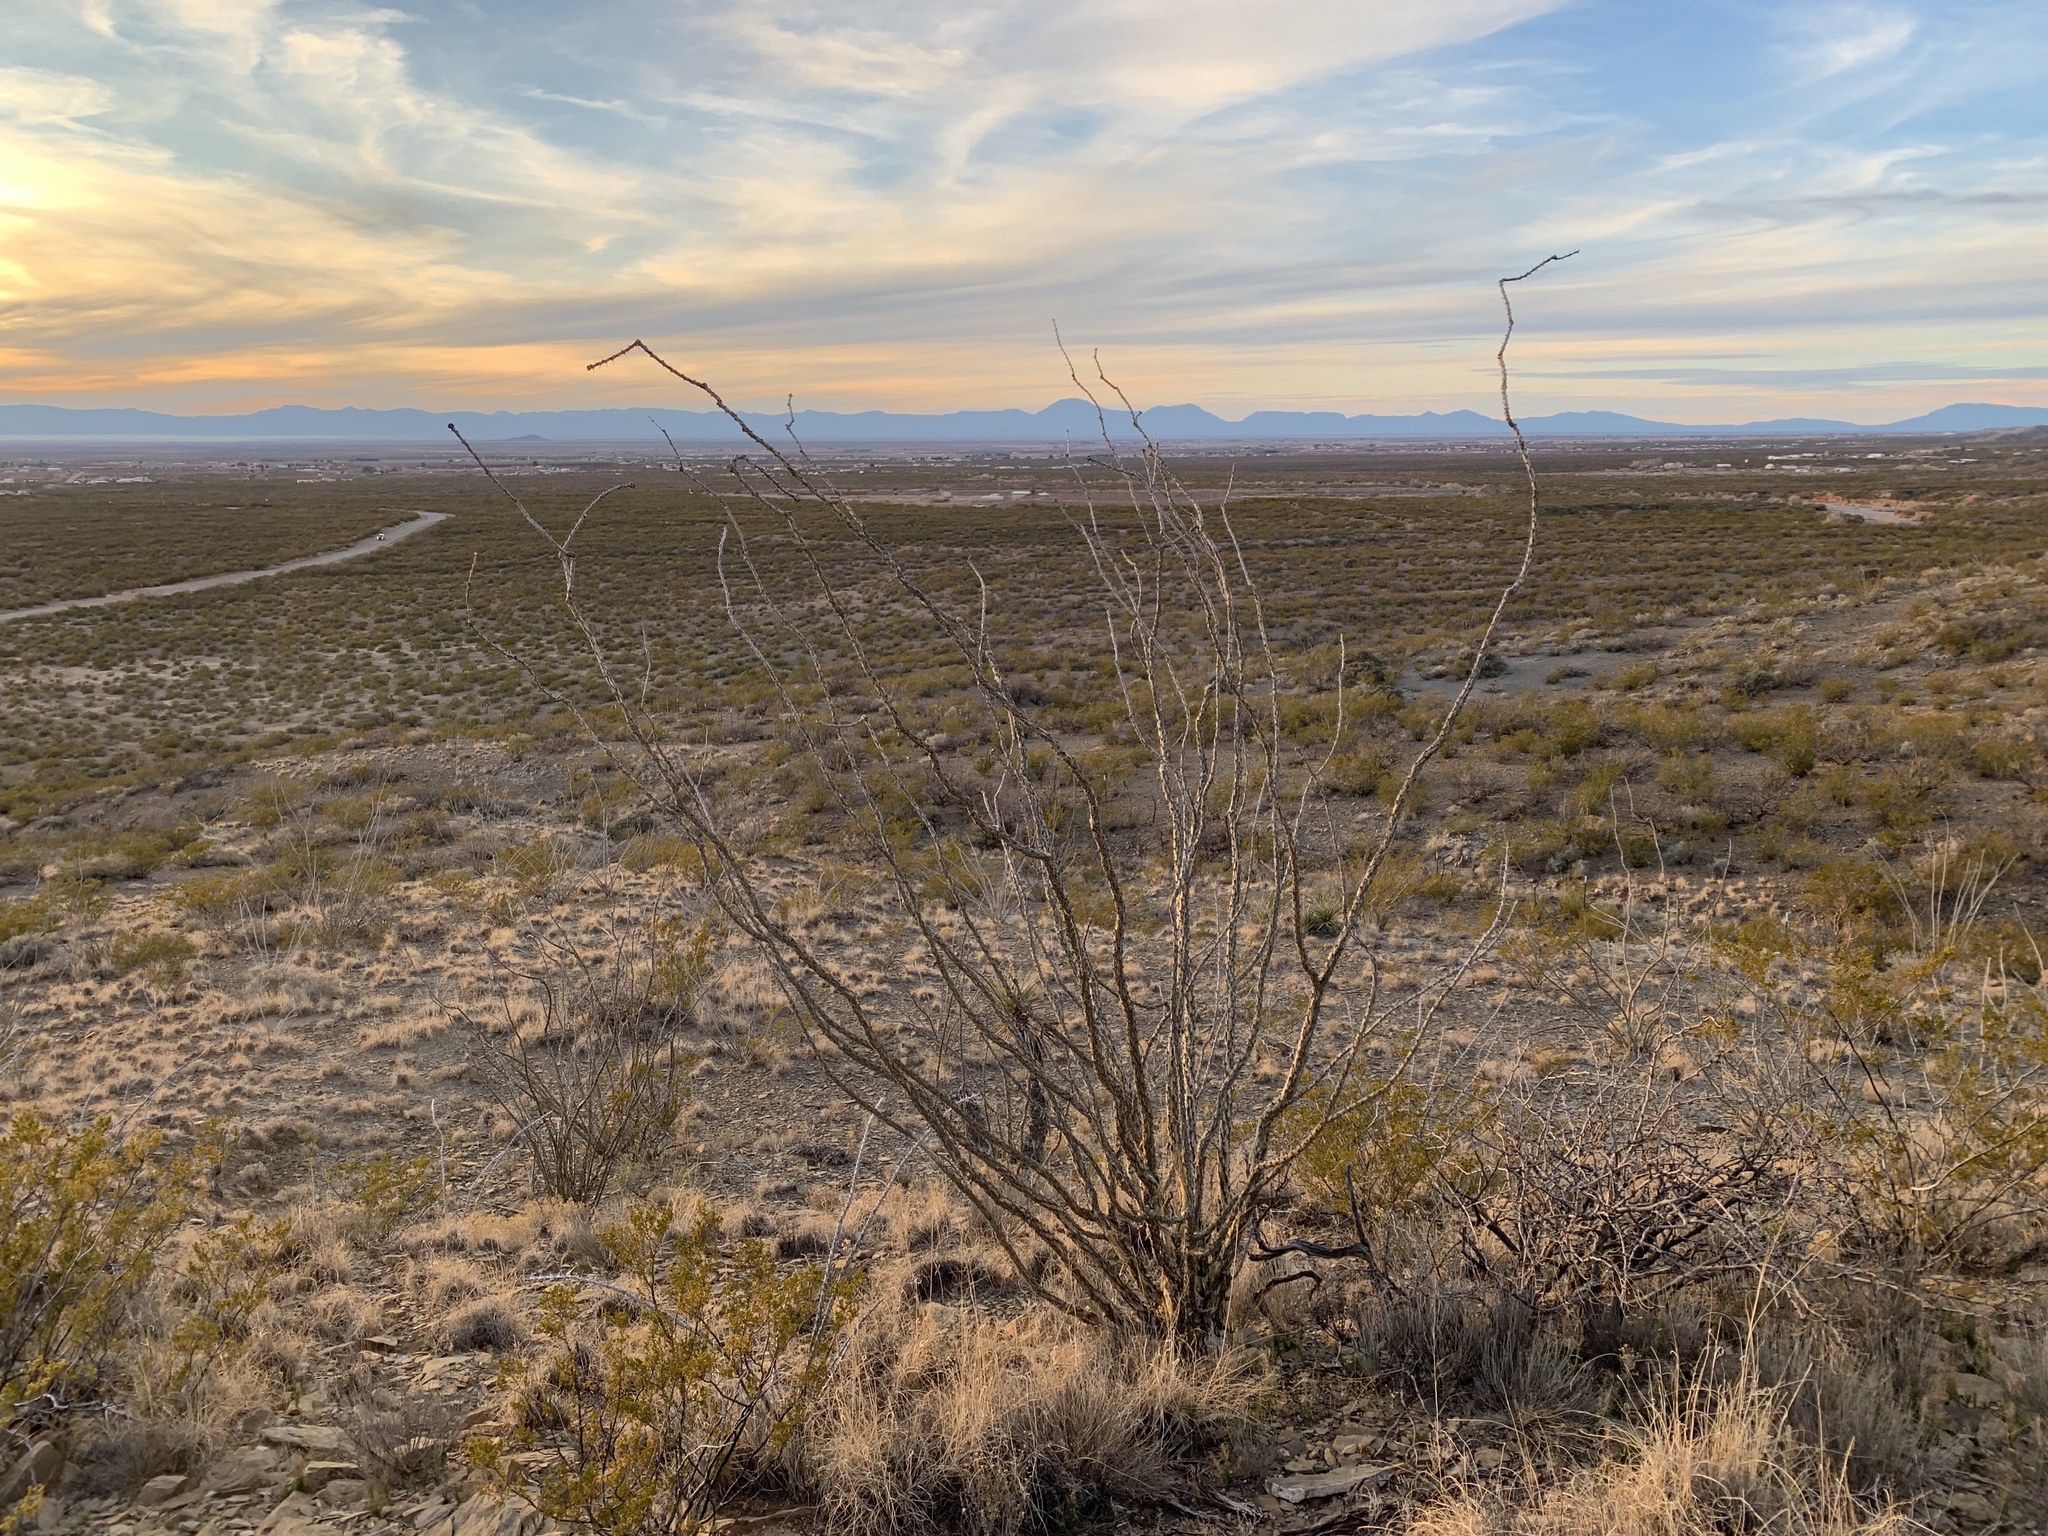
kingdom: Plantae
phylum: Tracheophyta
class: Magnoliopsida
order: Ericales
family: Fouquieriaceae
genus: Fouquieria
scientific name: Fouquieria splendens
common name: Vine-cactus
